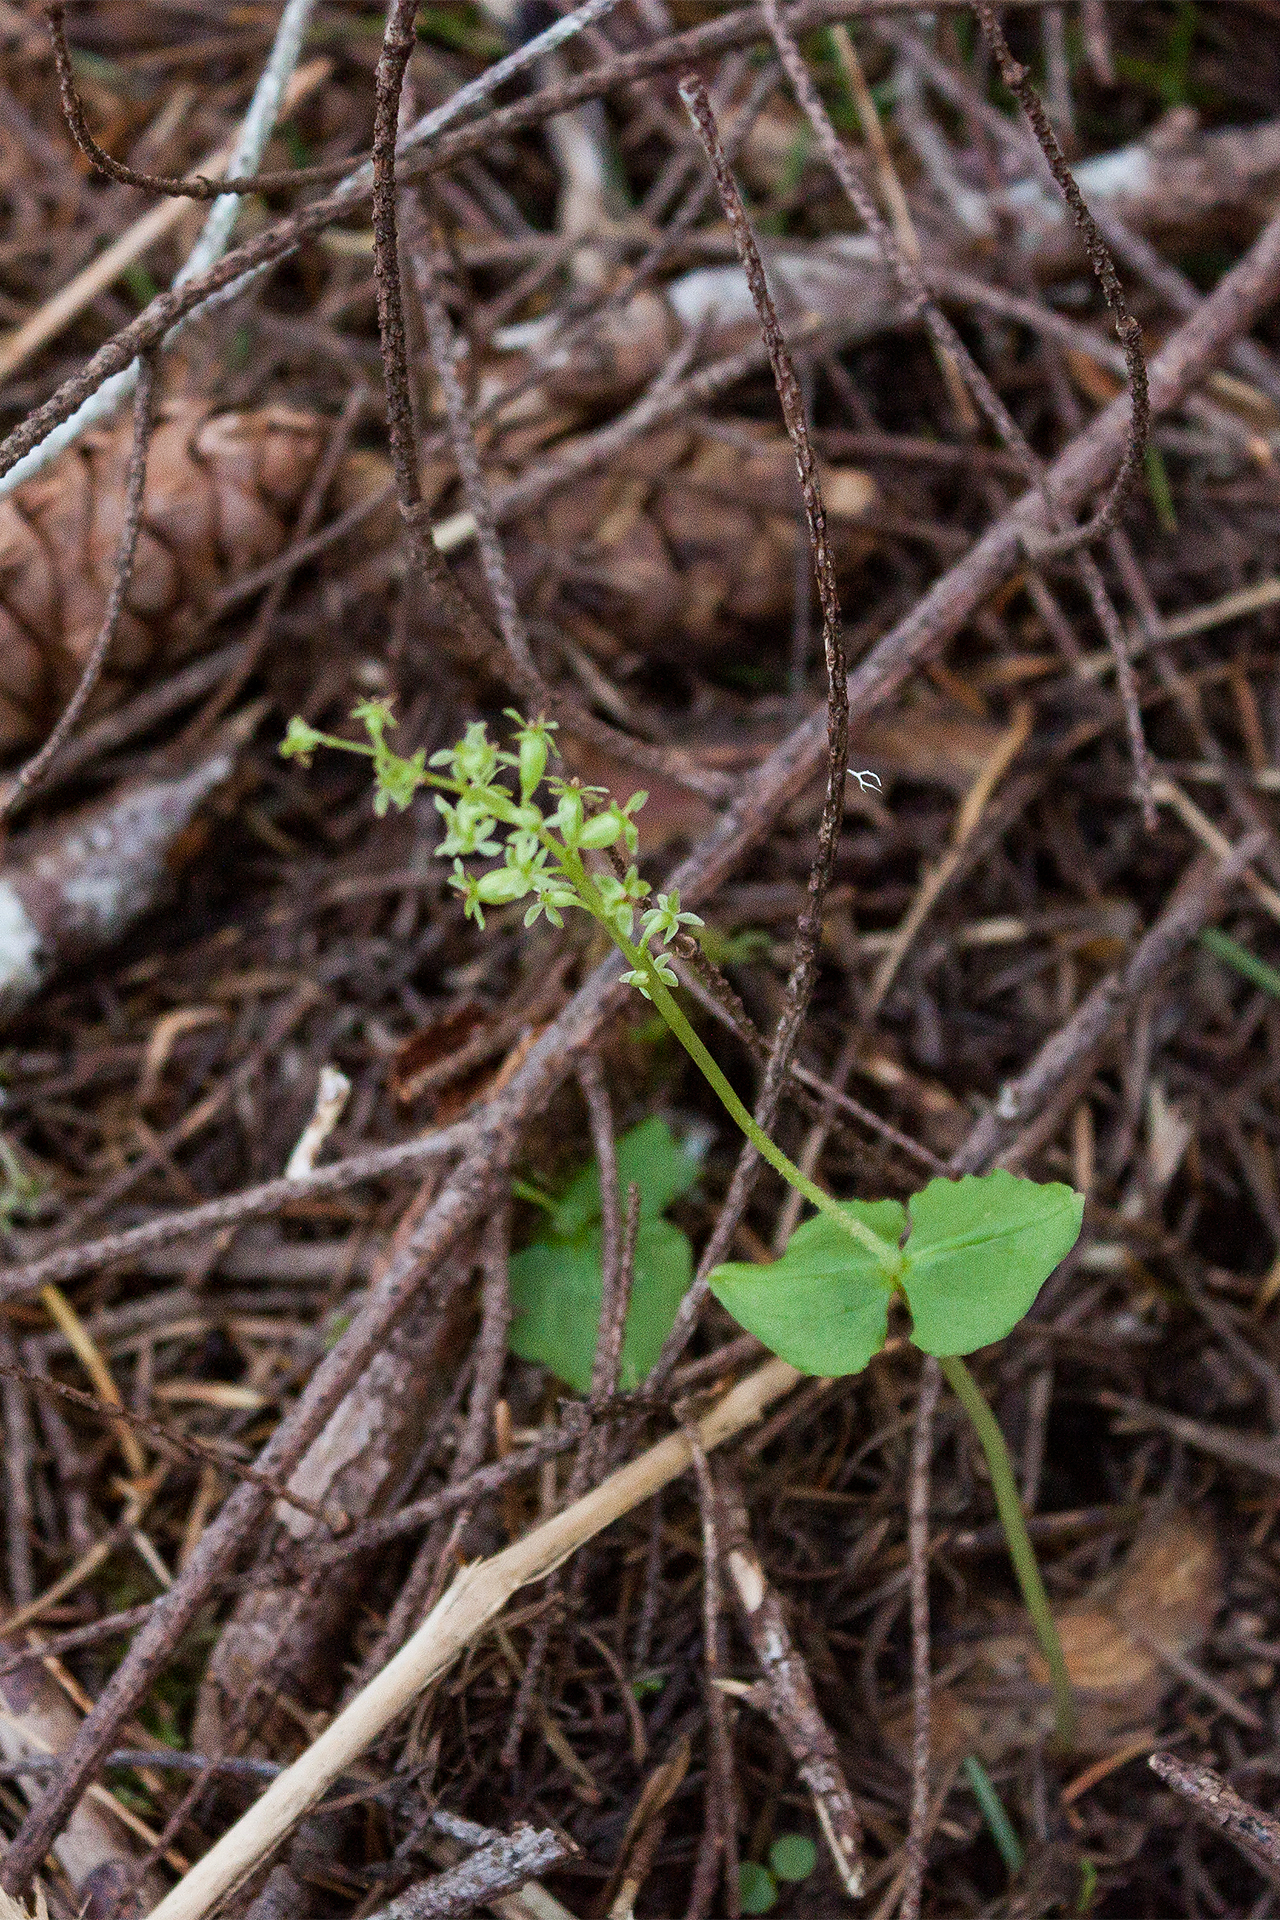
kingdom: Plantae
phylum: Tracheophyta
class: Liliopsida
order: Asparagales
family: Orchidaceae
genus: Neottia
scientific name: Neottia cordata
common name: Lesser twayblade
